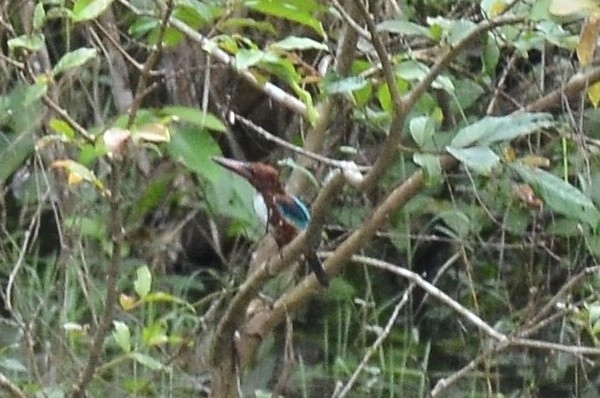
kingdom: Animalia
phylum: Chordata
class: Aves
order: Coraciiformes
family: Alcedinidae
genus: Halcyon
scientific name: Halcyon smyrnensis
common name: White-throated kingfisher
